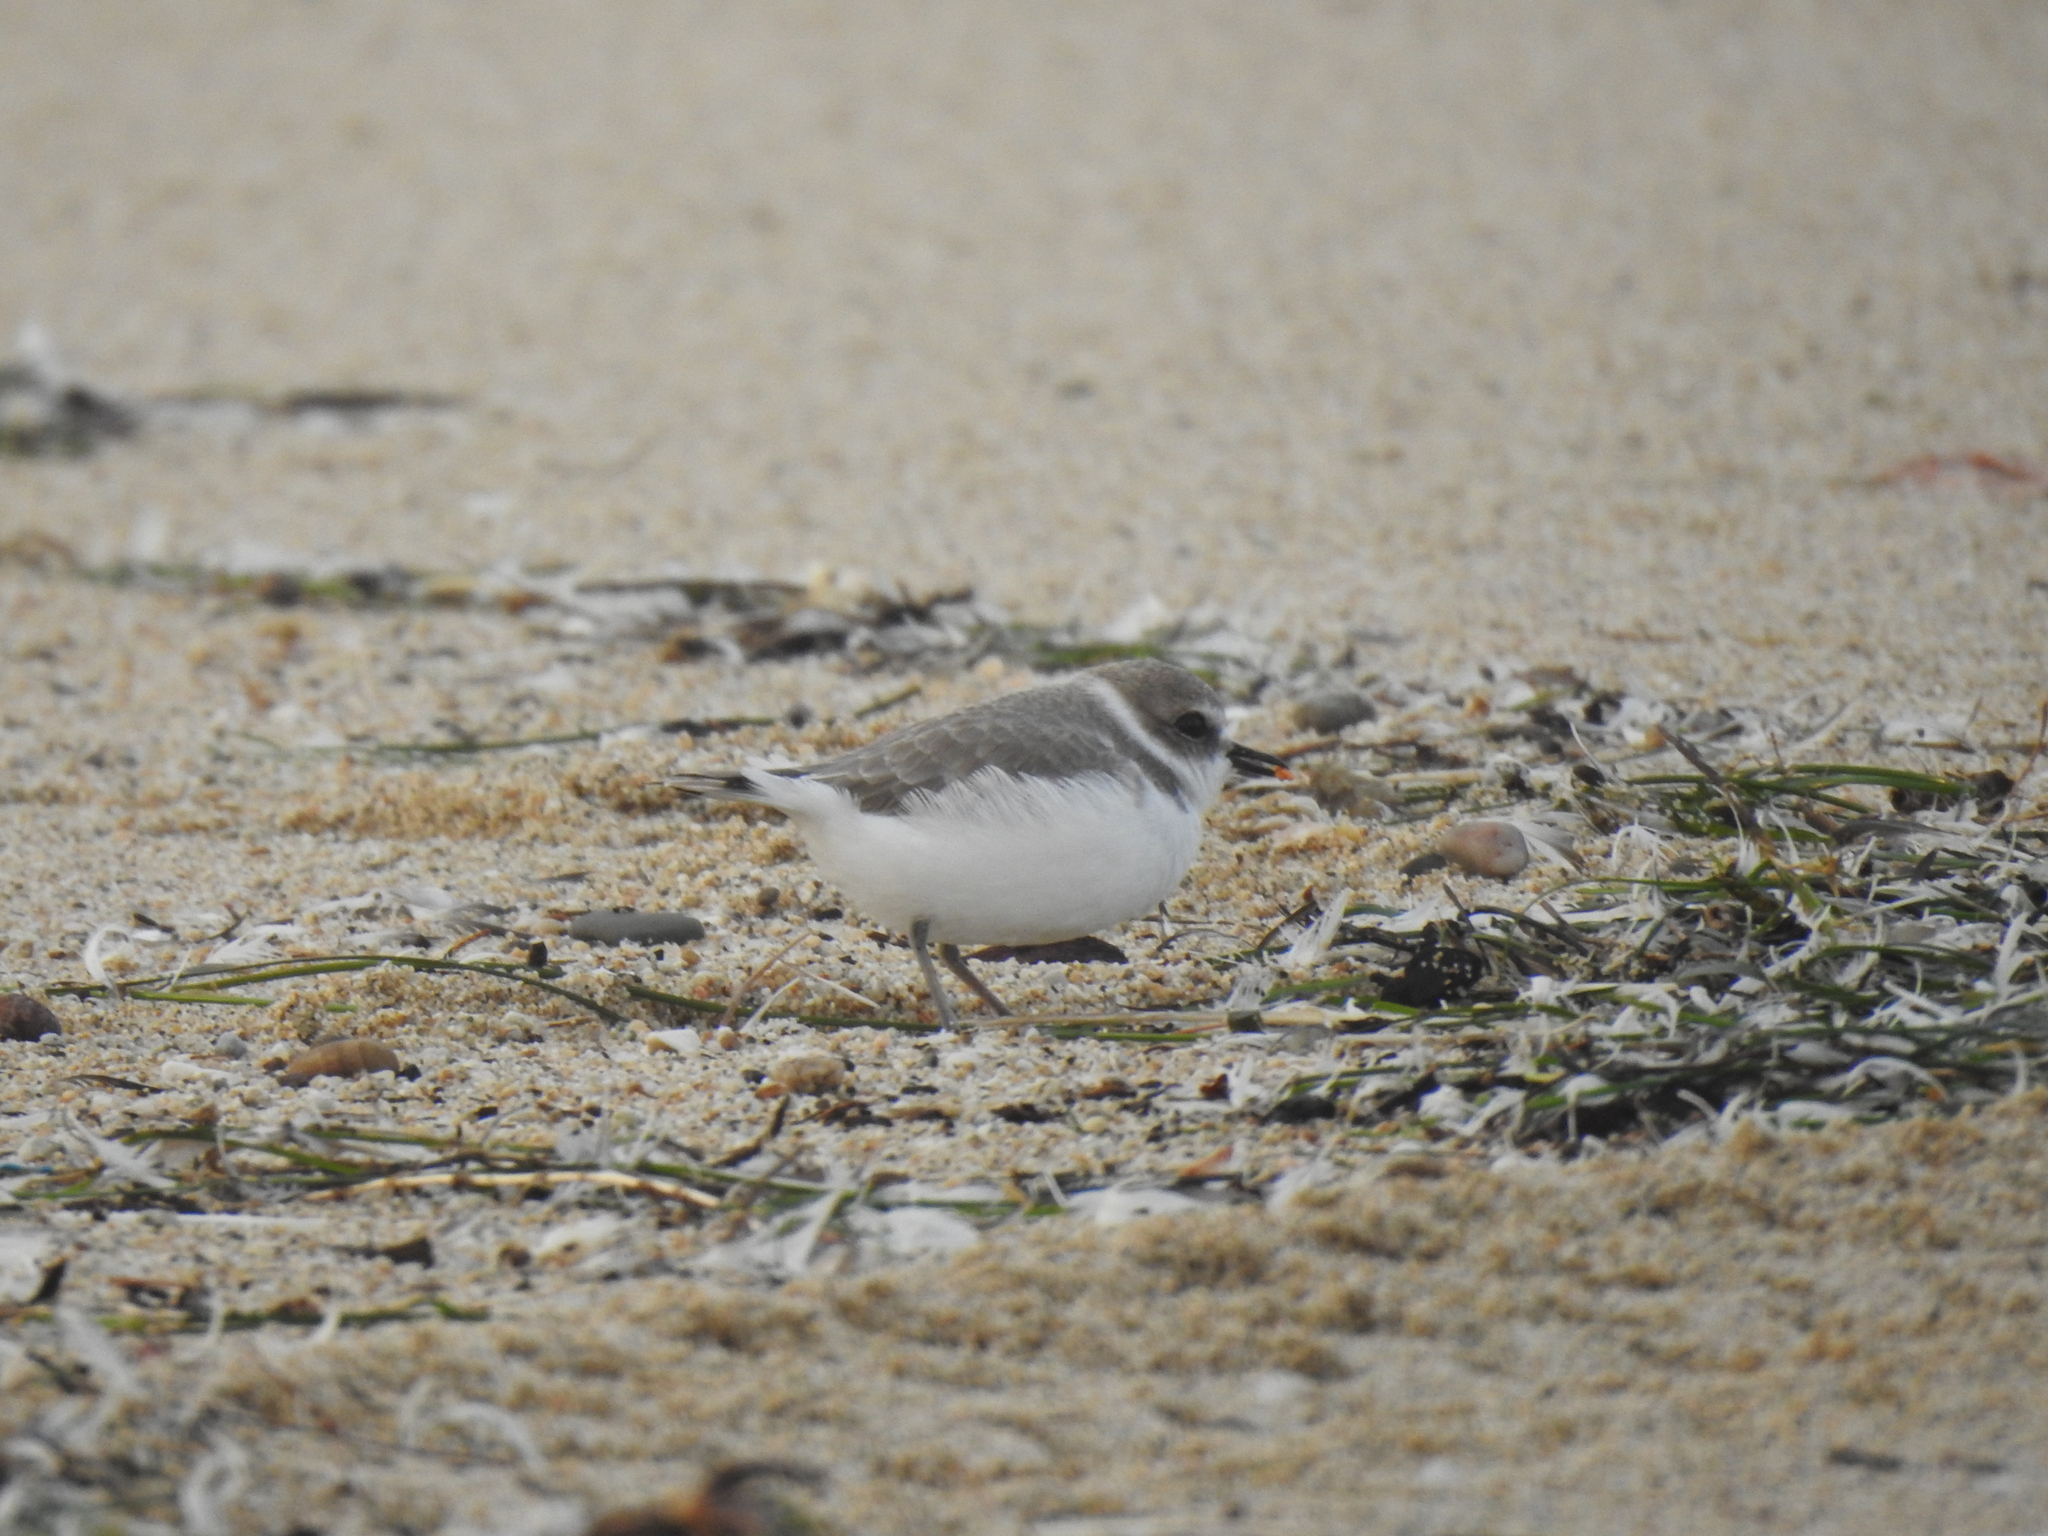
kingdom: Animalia
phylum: Chordata
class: Aves
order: Charadriiformes
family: Charadriidae
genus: Anarhynchus
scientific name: Anarhynchus
